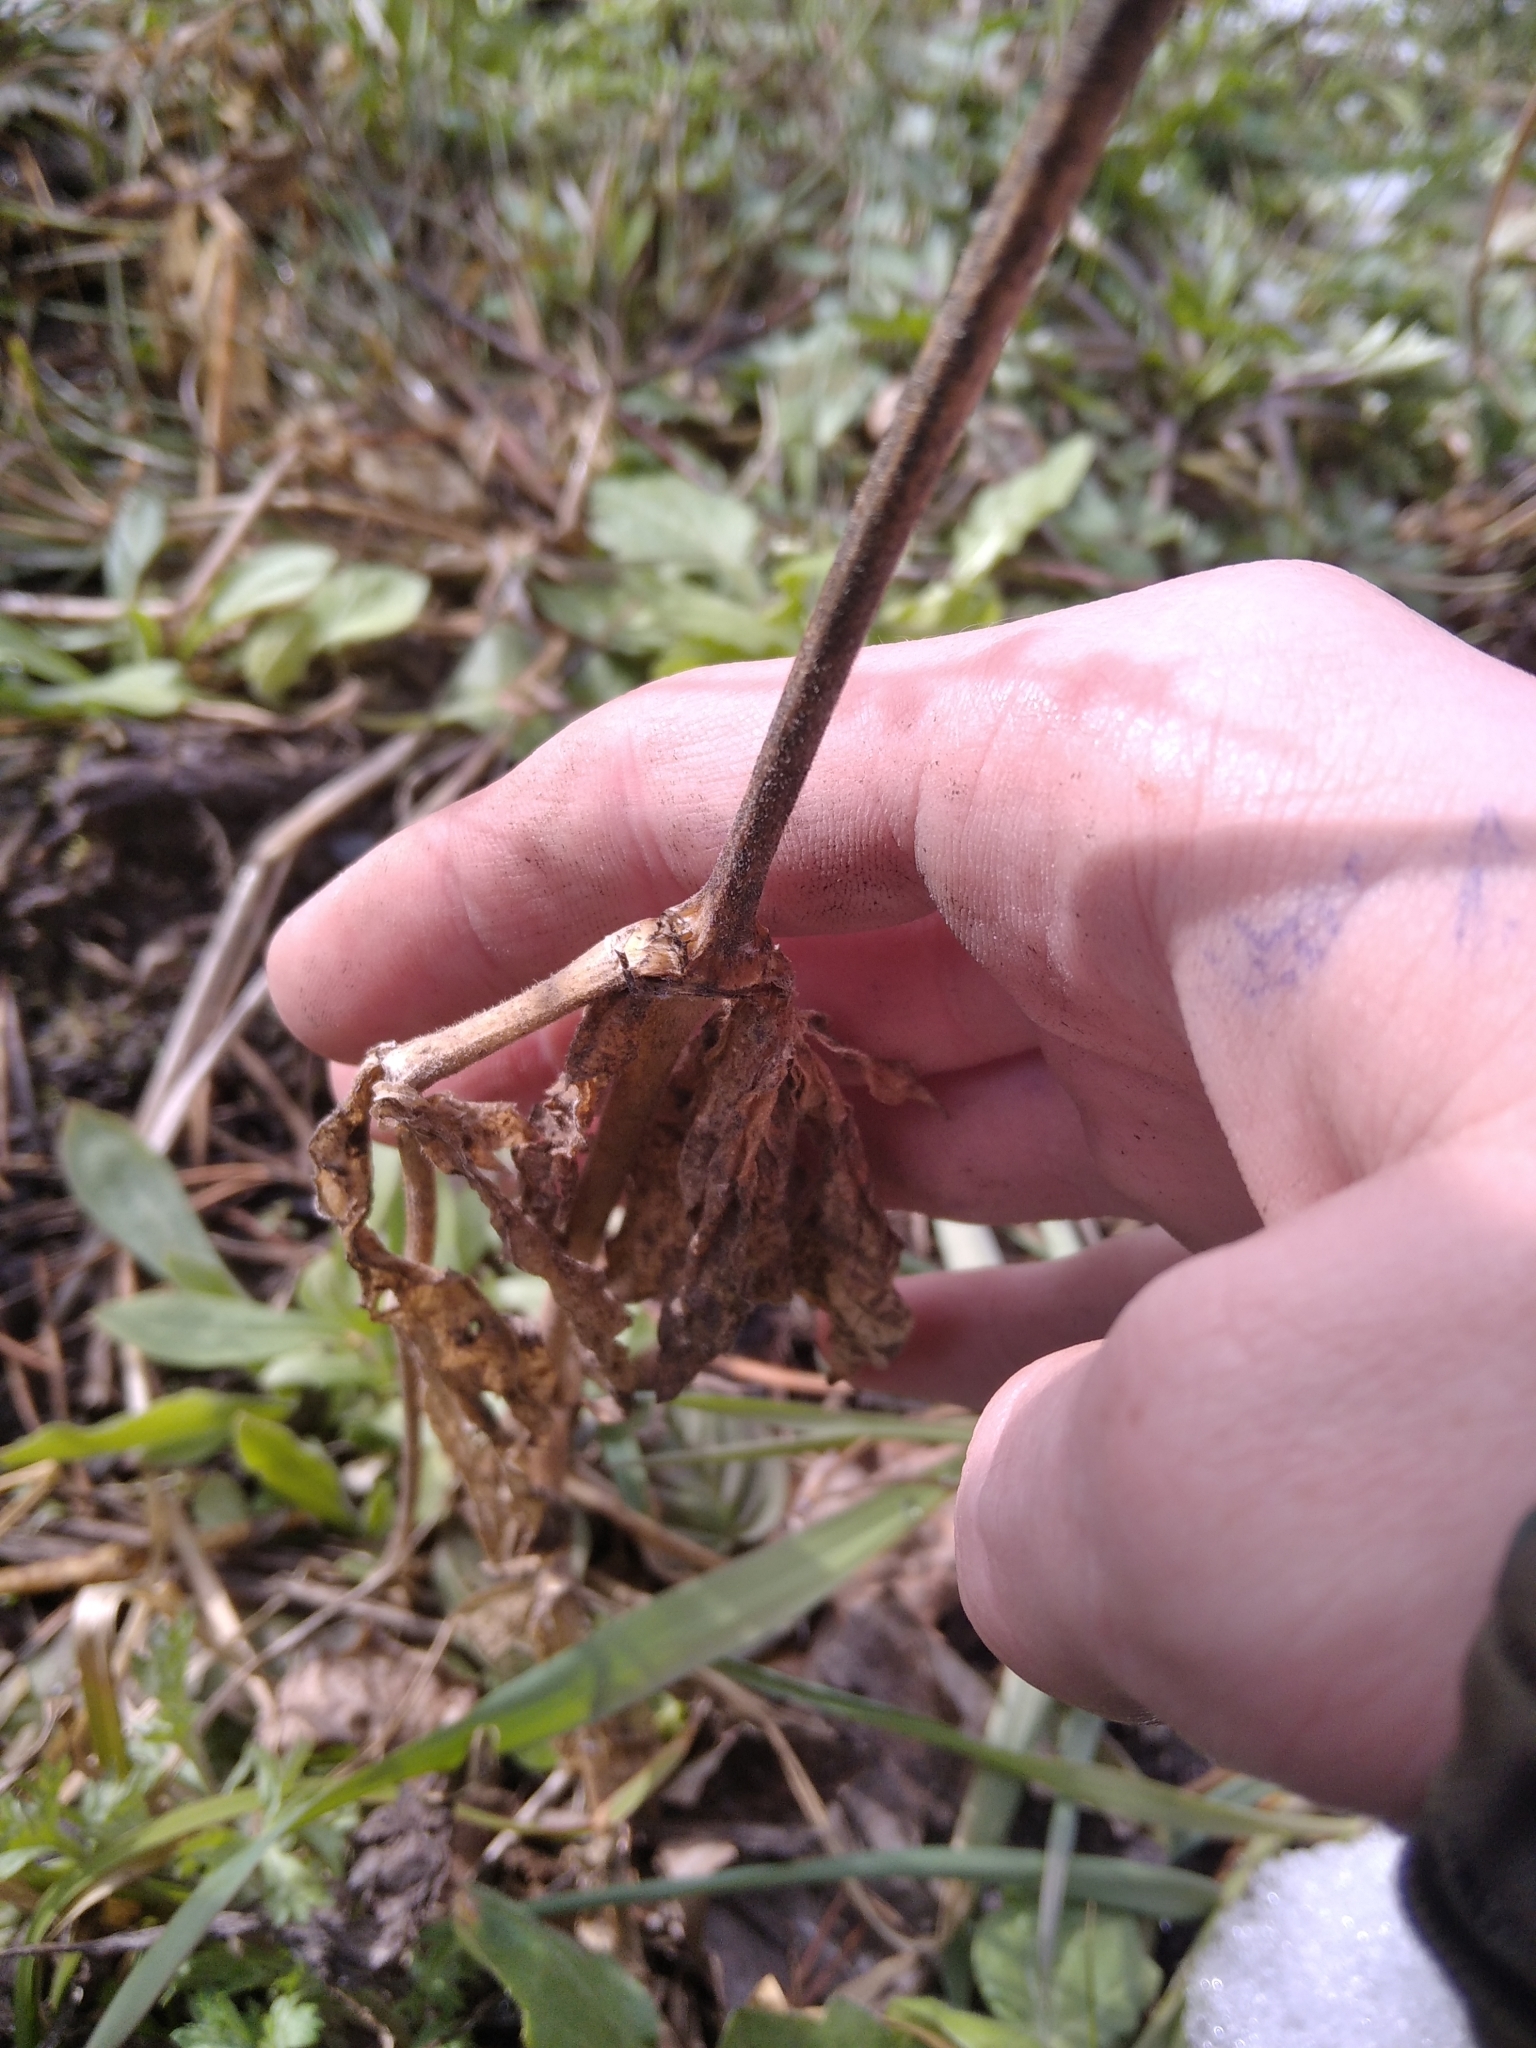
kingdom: Plantae
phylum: Tracheophyta
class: Magnoliopsida
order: Caryophyllales
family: Caryophyllaceae
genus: Silene
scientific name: Silene latifolia
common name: White campion
